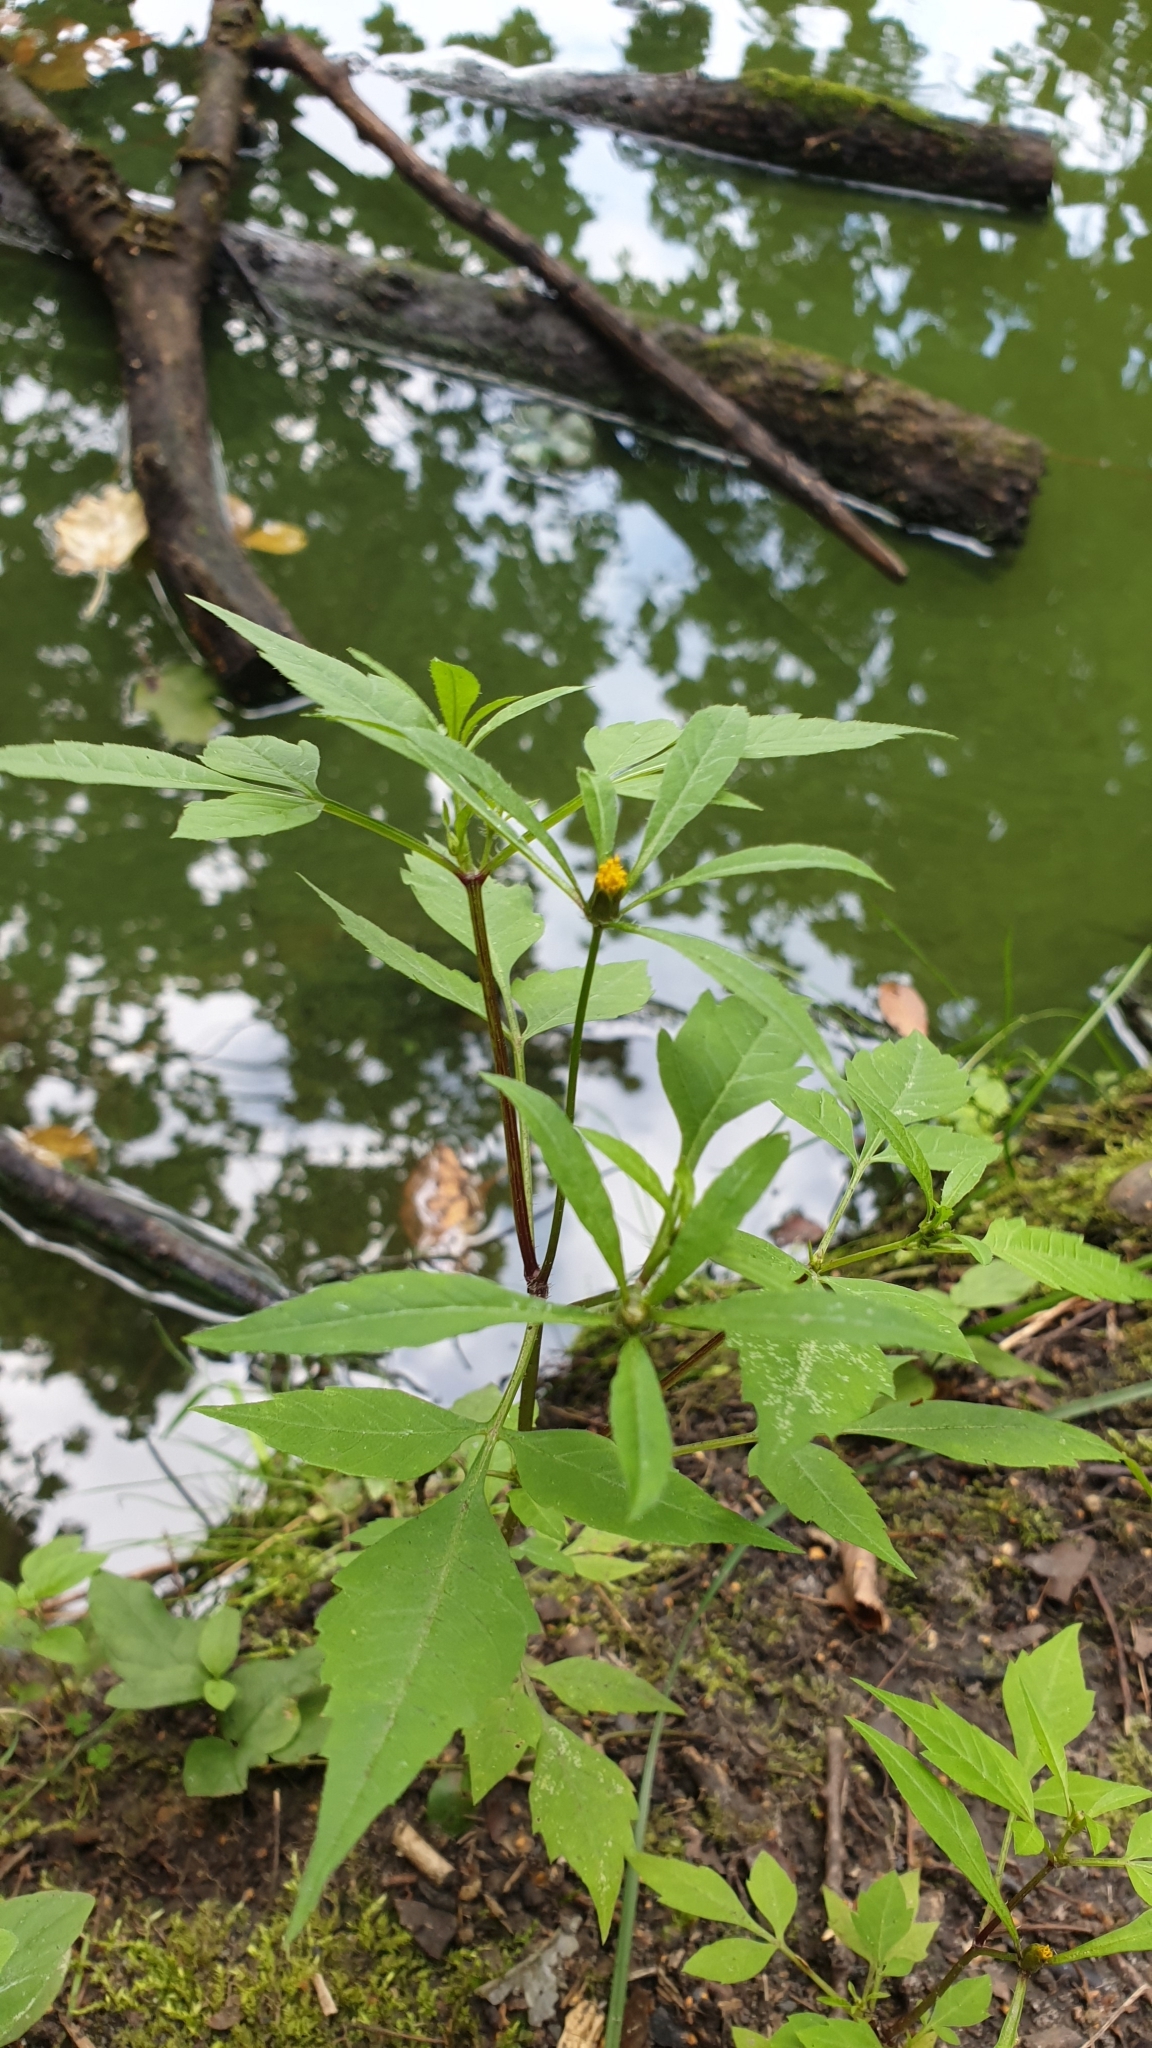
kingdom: Plantae
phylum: Tracheophyta
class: Magnoliopsida
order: Asterales
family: Asteraceae
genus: Bidens
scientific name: Bidens frondosa
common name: Beggarticks
